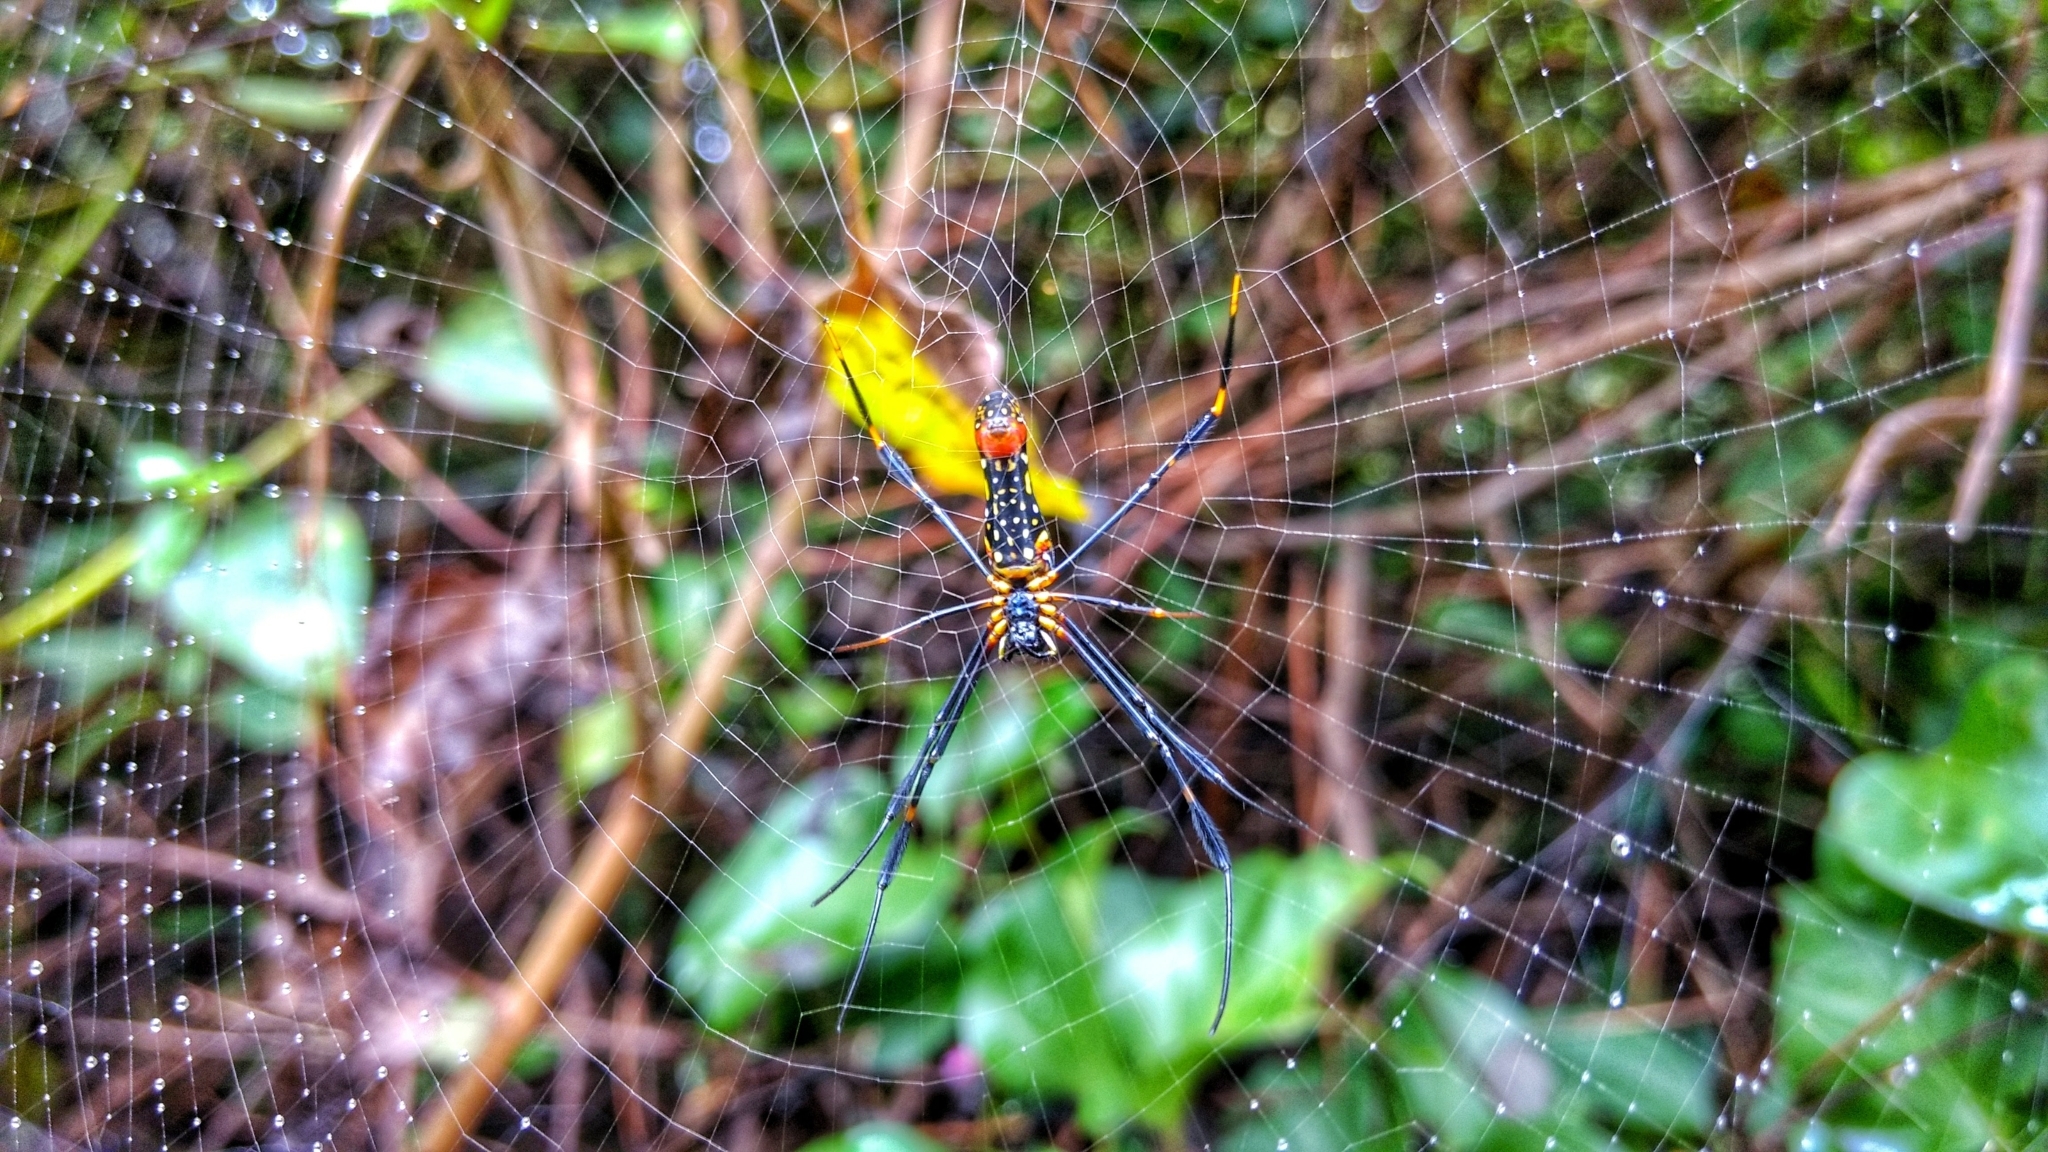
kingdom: Animalia
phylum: Arthropoda
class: Arachnida
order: Araneae
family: Araneidae
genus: Nephila
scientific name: Nephila pilipes
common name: Giant golden orb weaver
